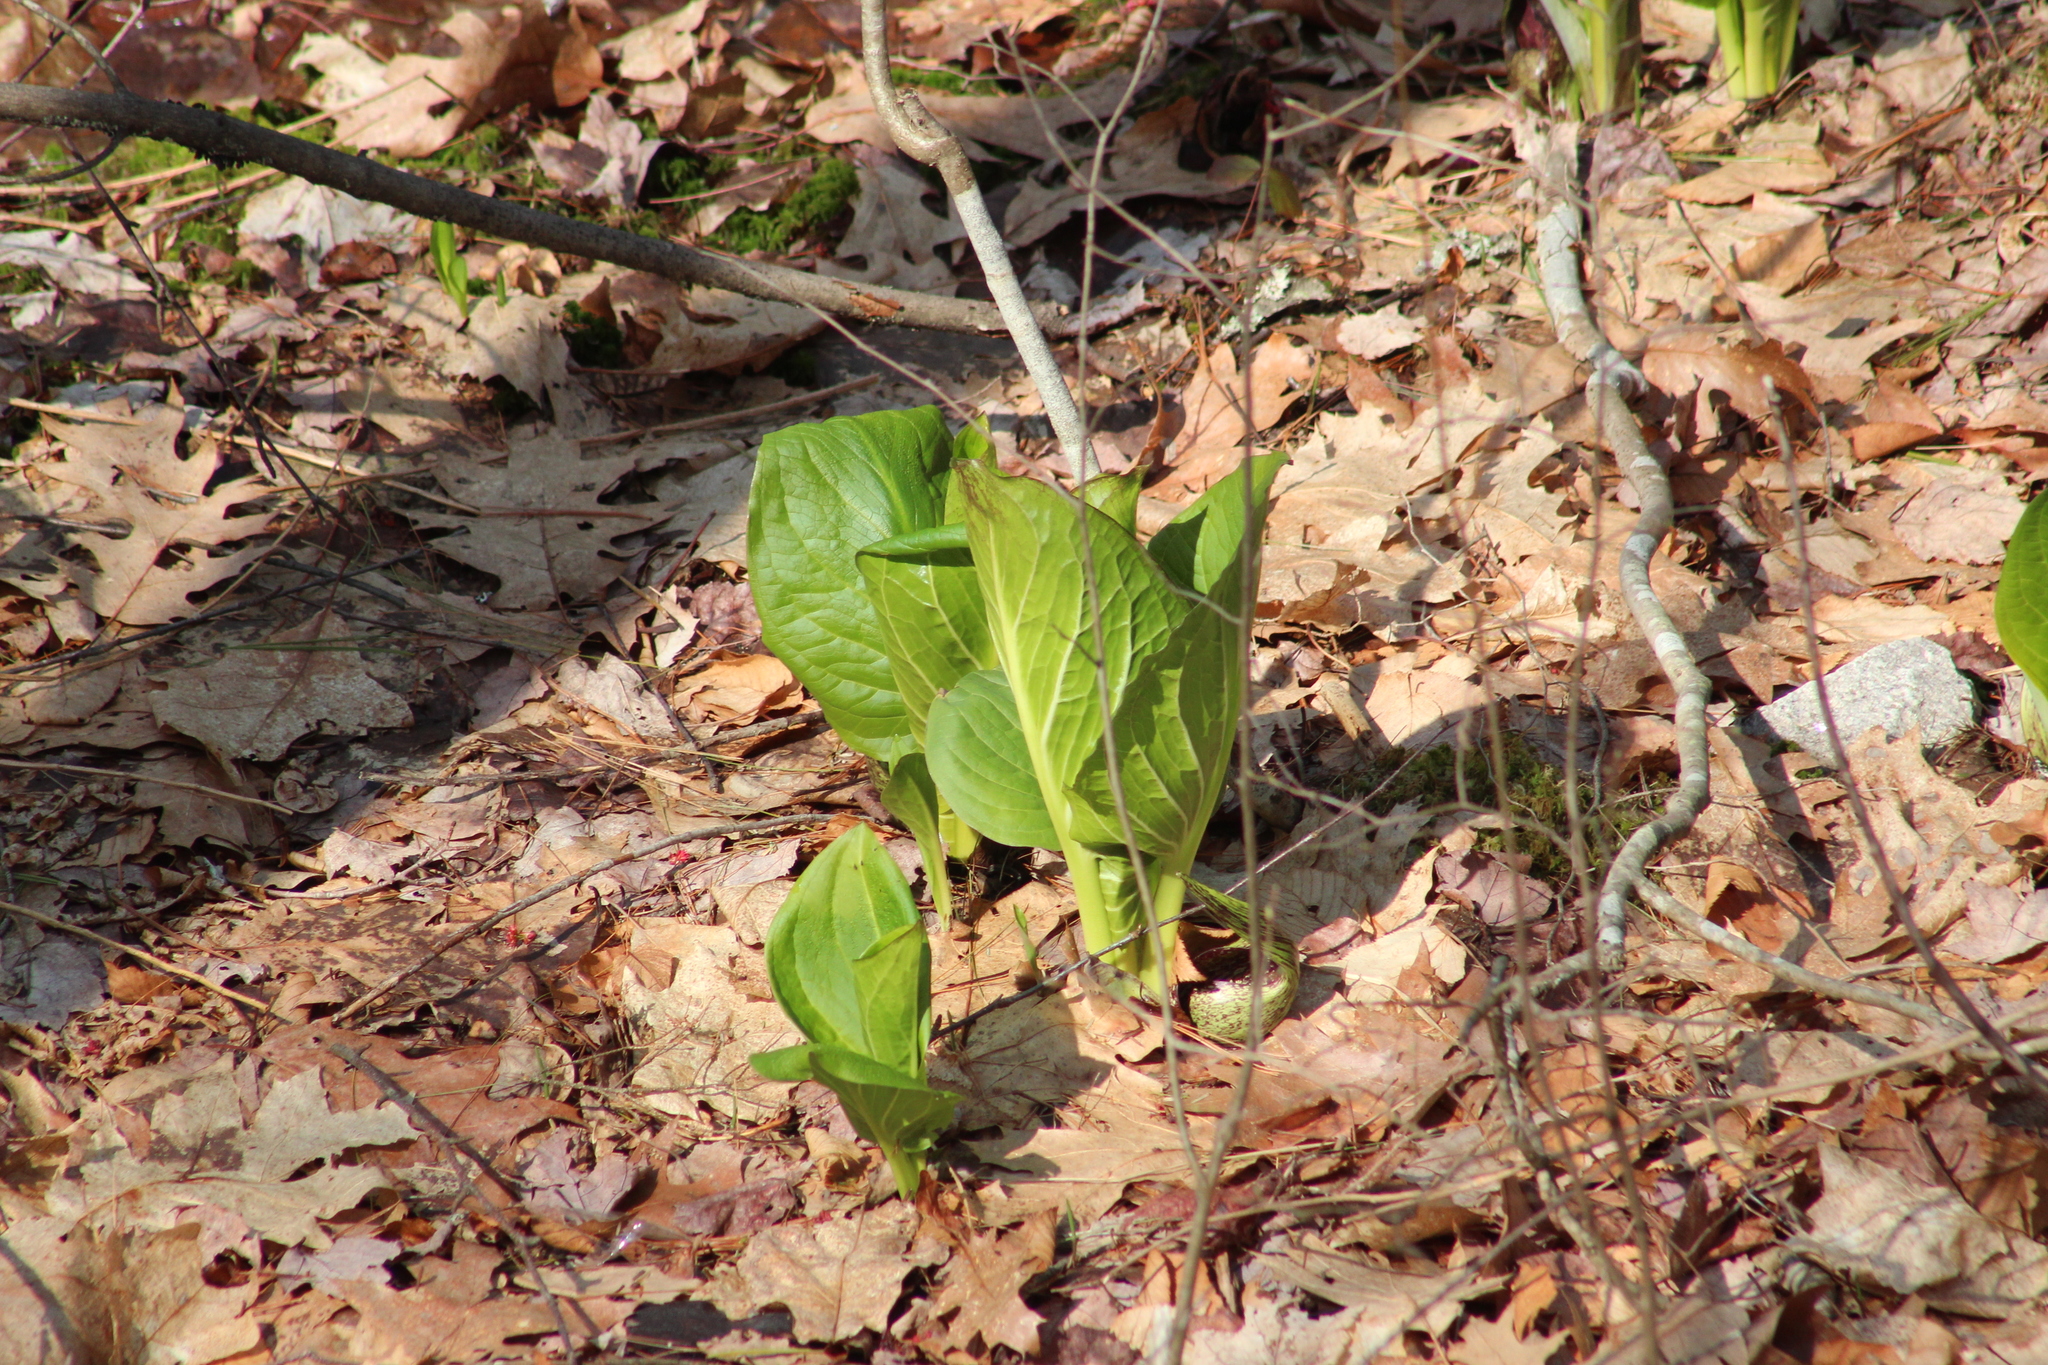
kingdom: Plantae
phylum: Tracheophyta
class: Liliopsida
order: Alismatales
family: Araceae
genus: Symplocarpus
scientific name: Symplocarpus foetidus
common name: Eastern skunk cabbage
